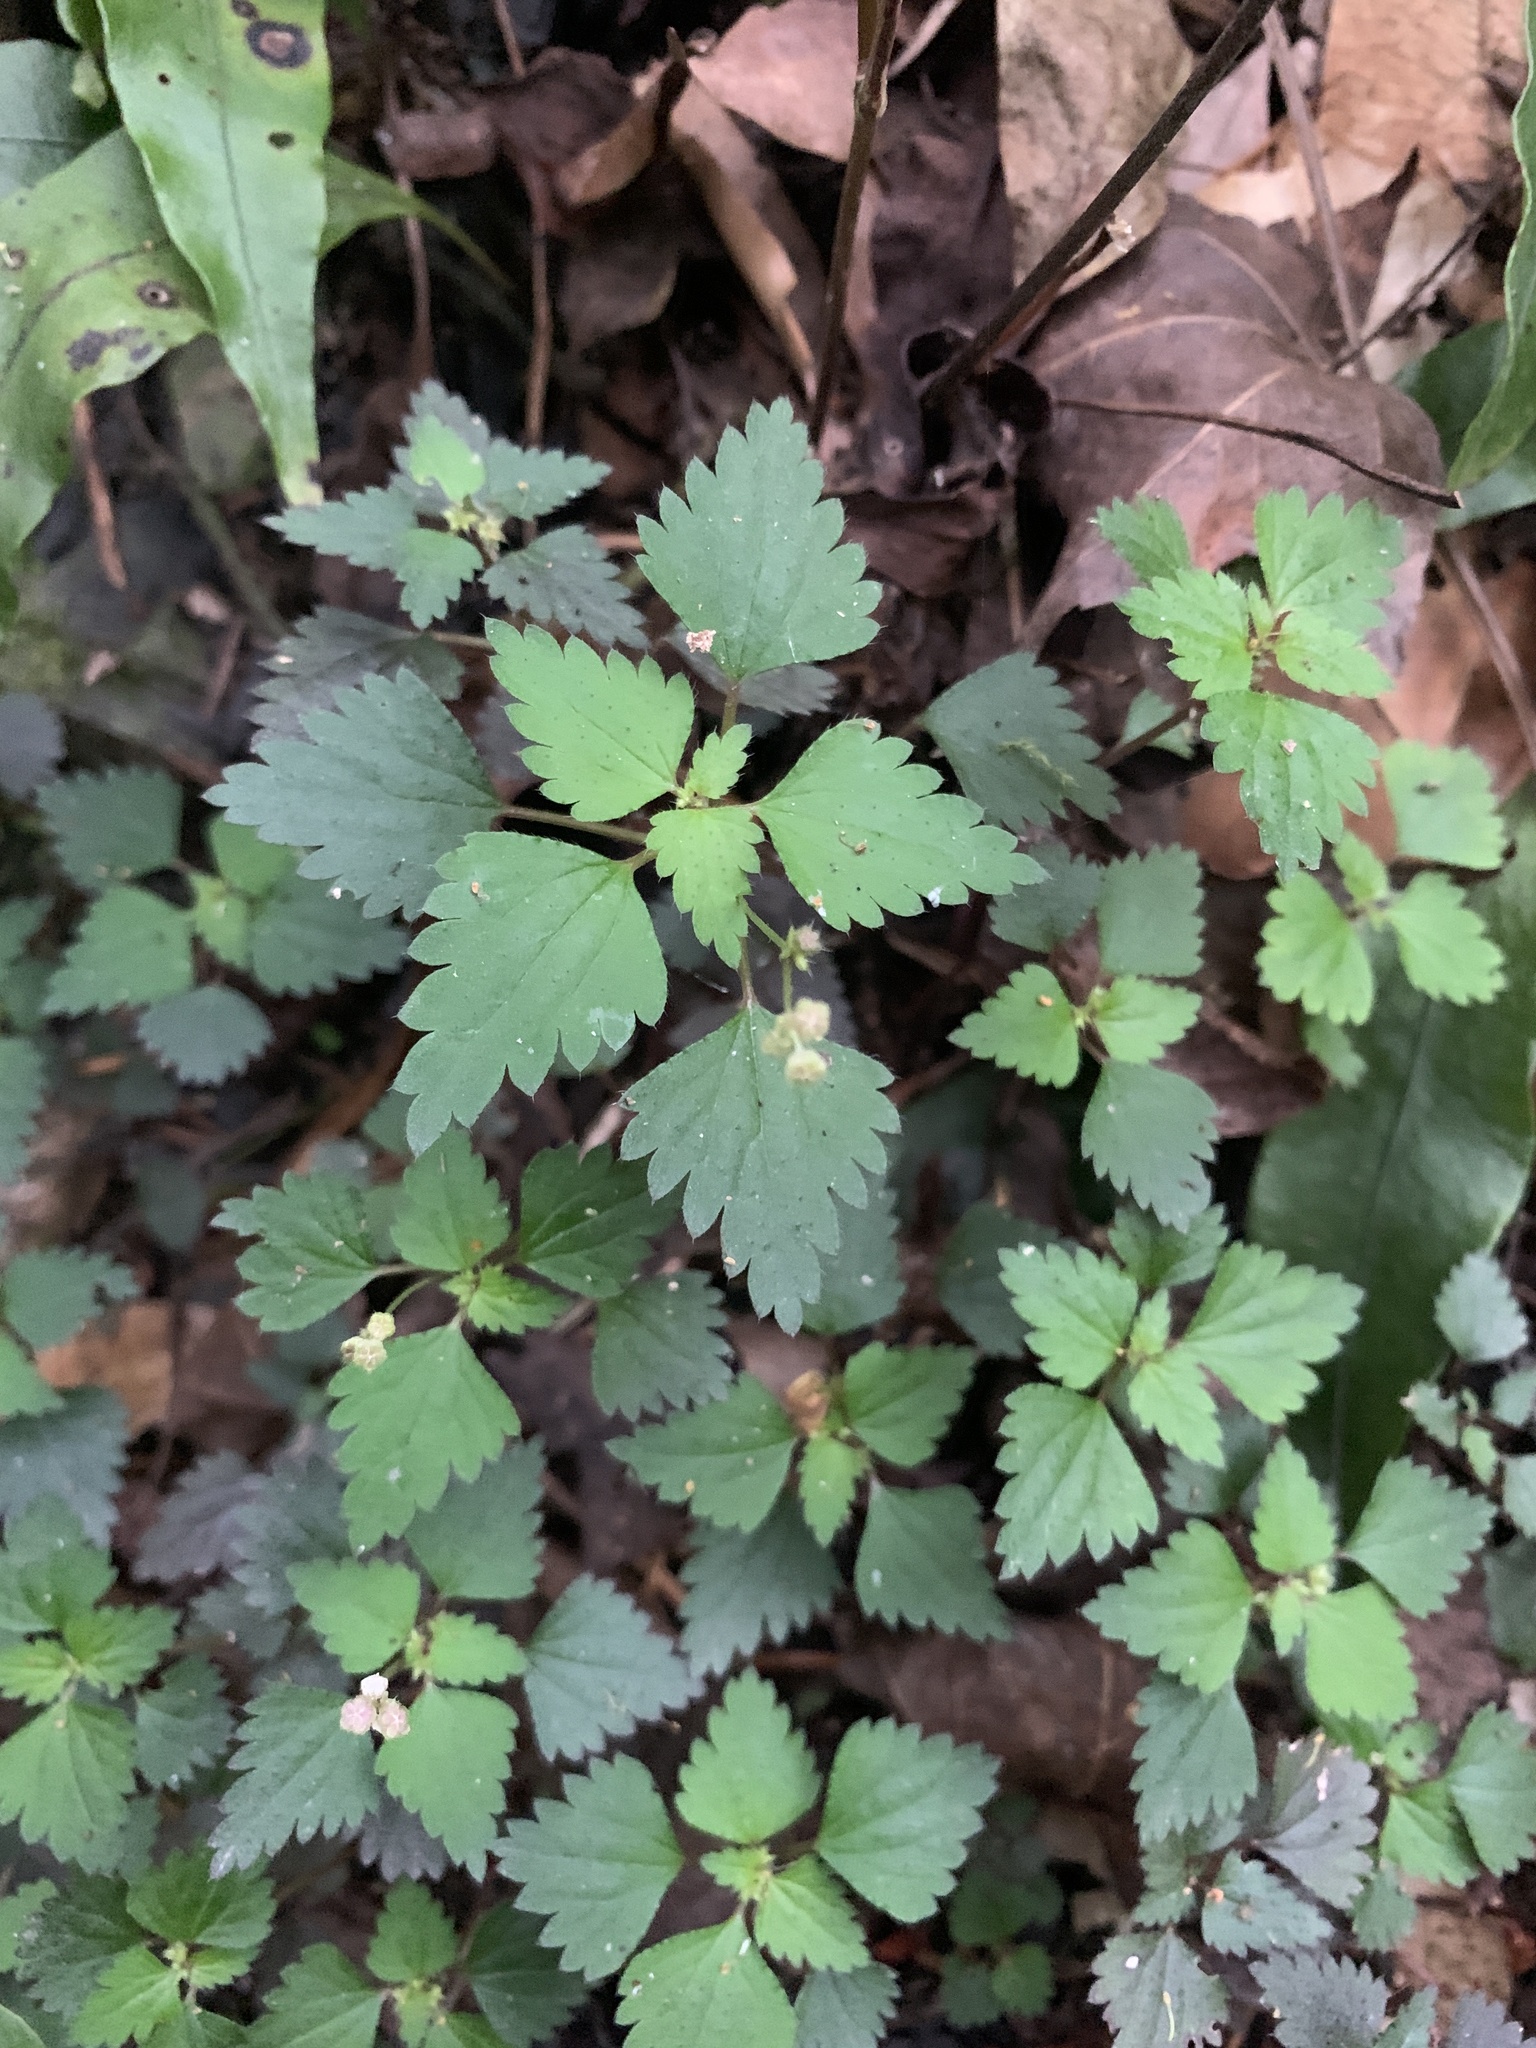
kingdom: Plantae
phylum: Tracheophyta
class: Magnoliopsida
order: Rosales
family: Urticaceae
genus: Nanocnide
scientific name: Nanocnide japonica
